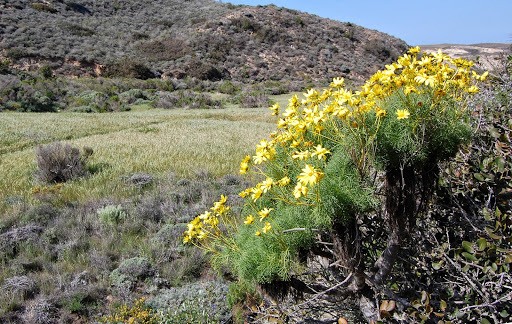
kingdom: Plantae
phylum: Tracheophyta
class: Magnoliopsida
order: Asterales
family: Asteraceae
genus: Coreopsis
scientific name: Coreopsis gigantea
